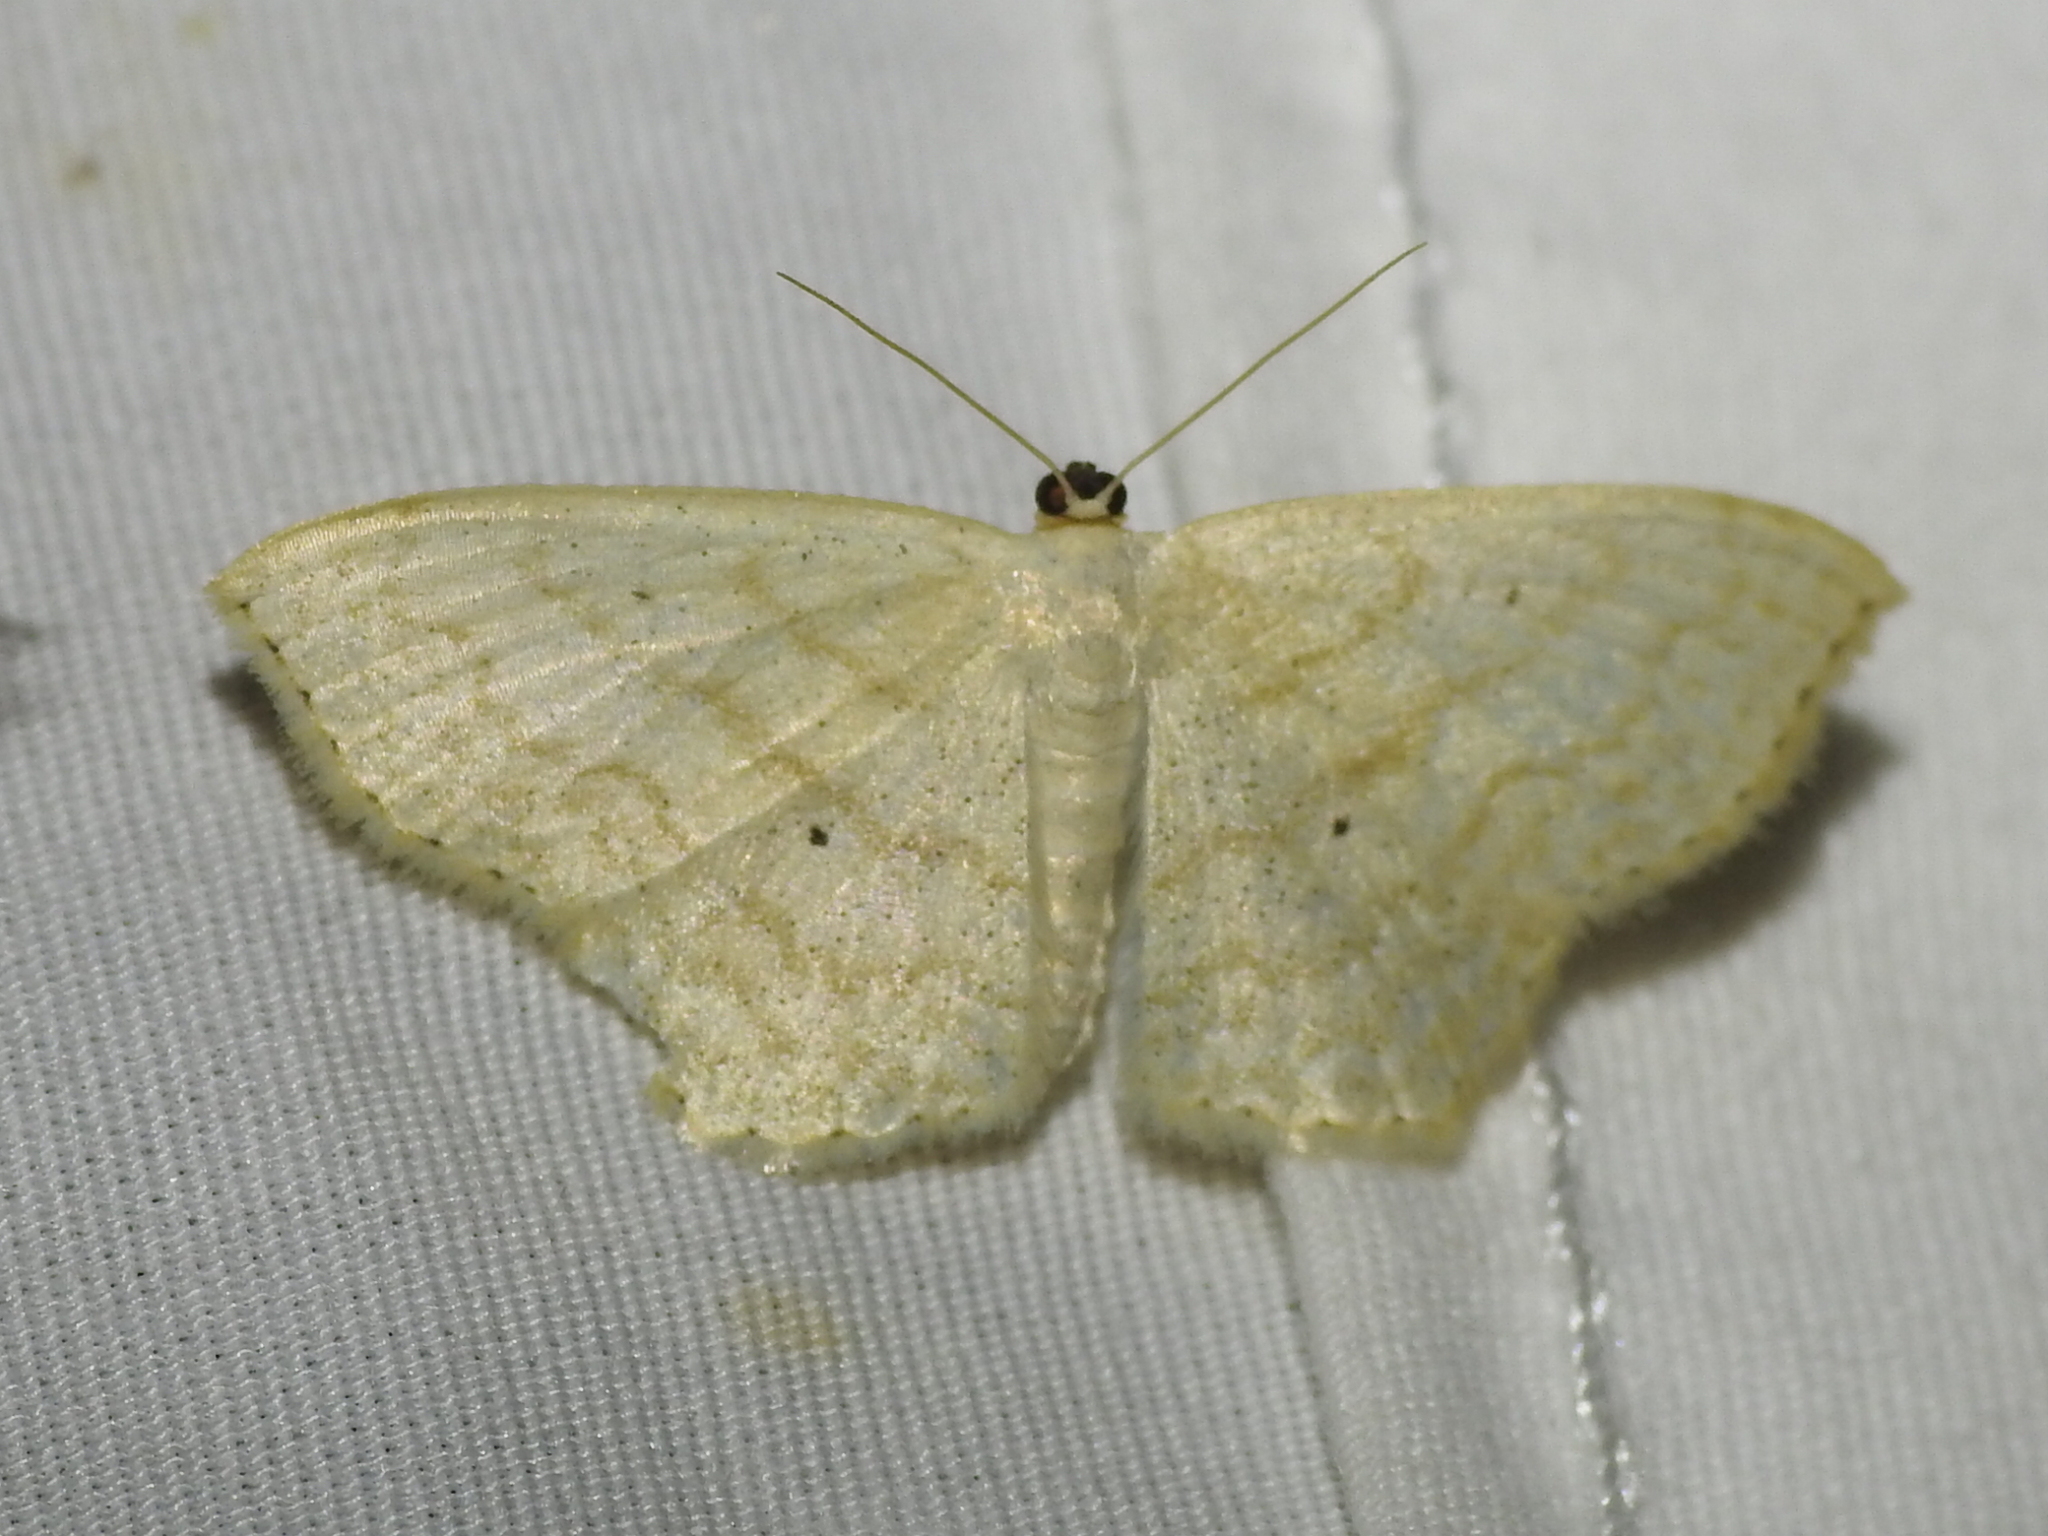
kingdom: Animalia
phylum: Arthropoda
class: Insecta
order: Lepidoptera
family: Geometridae
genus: Scopula
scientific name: Scopula limboundata
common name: Large lace border
